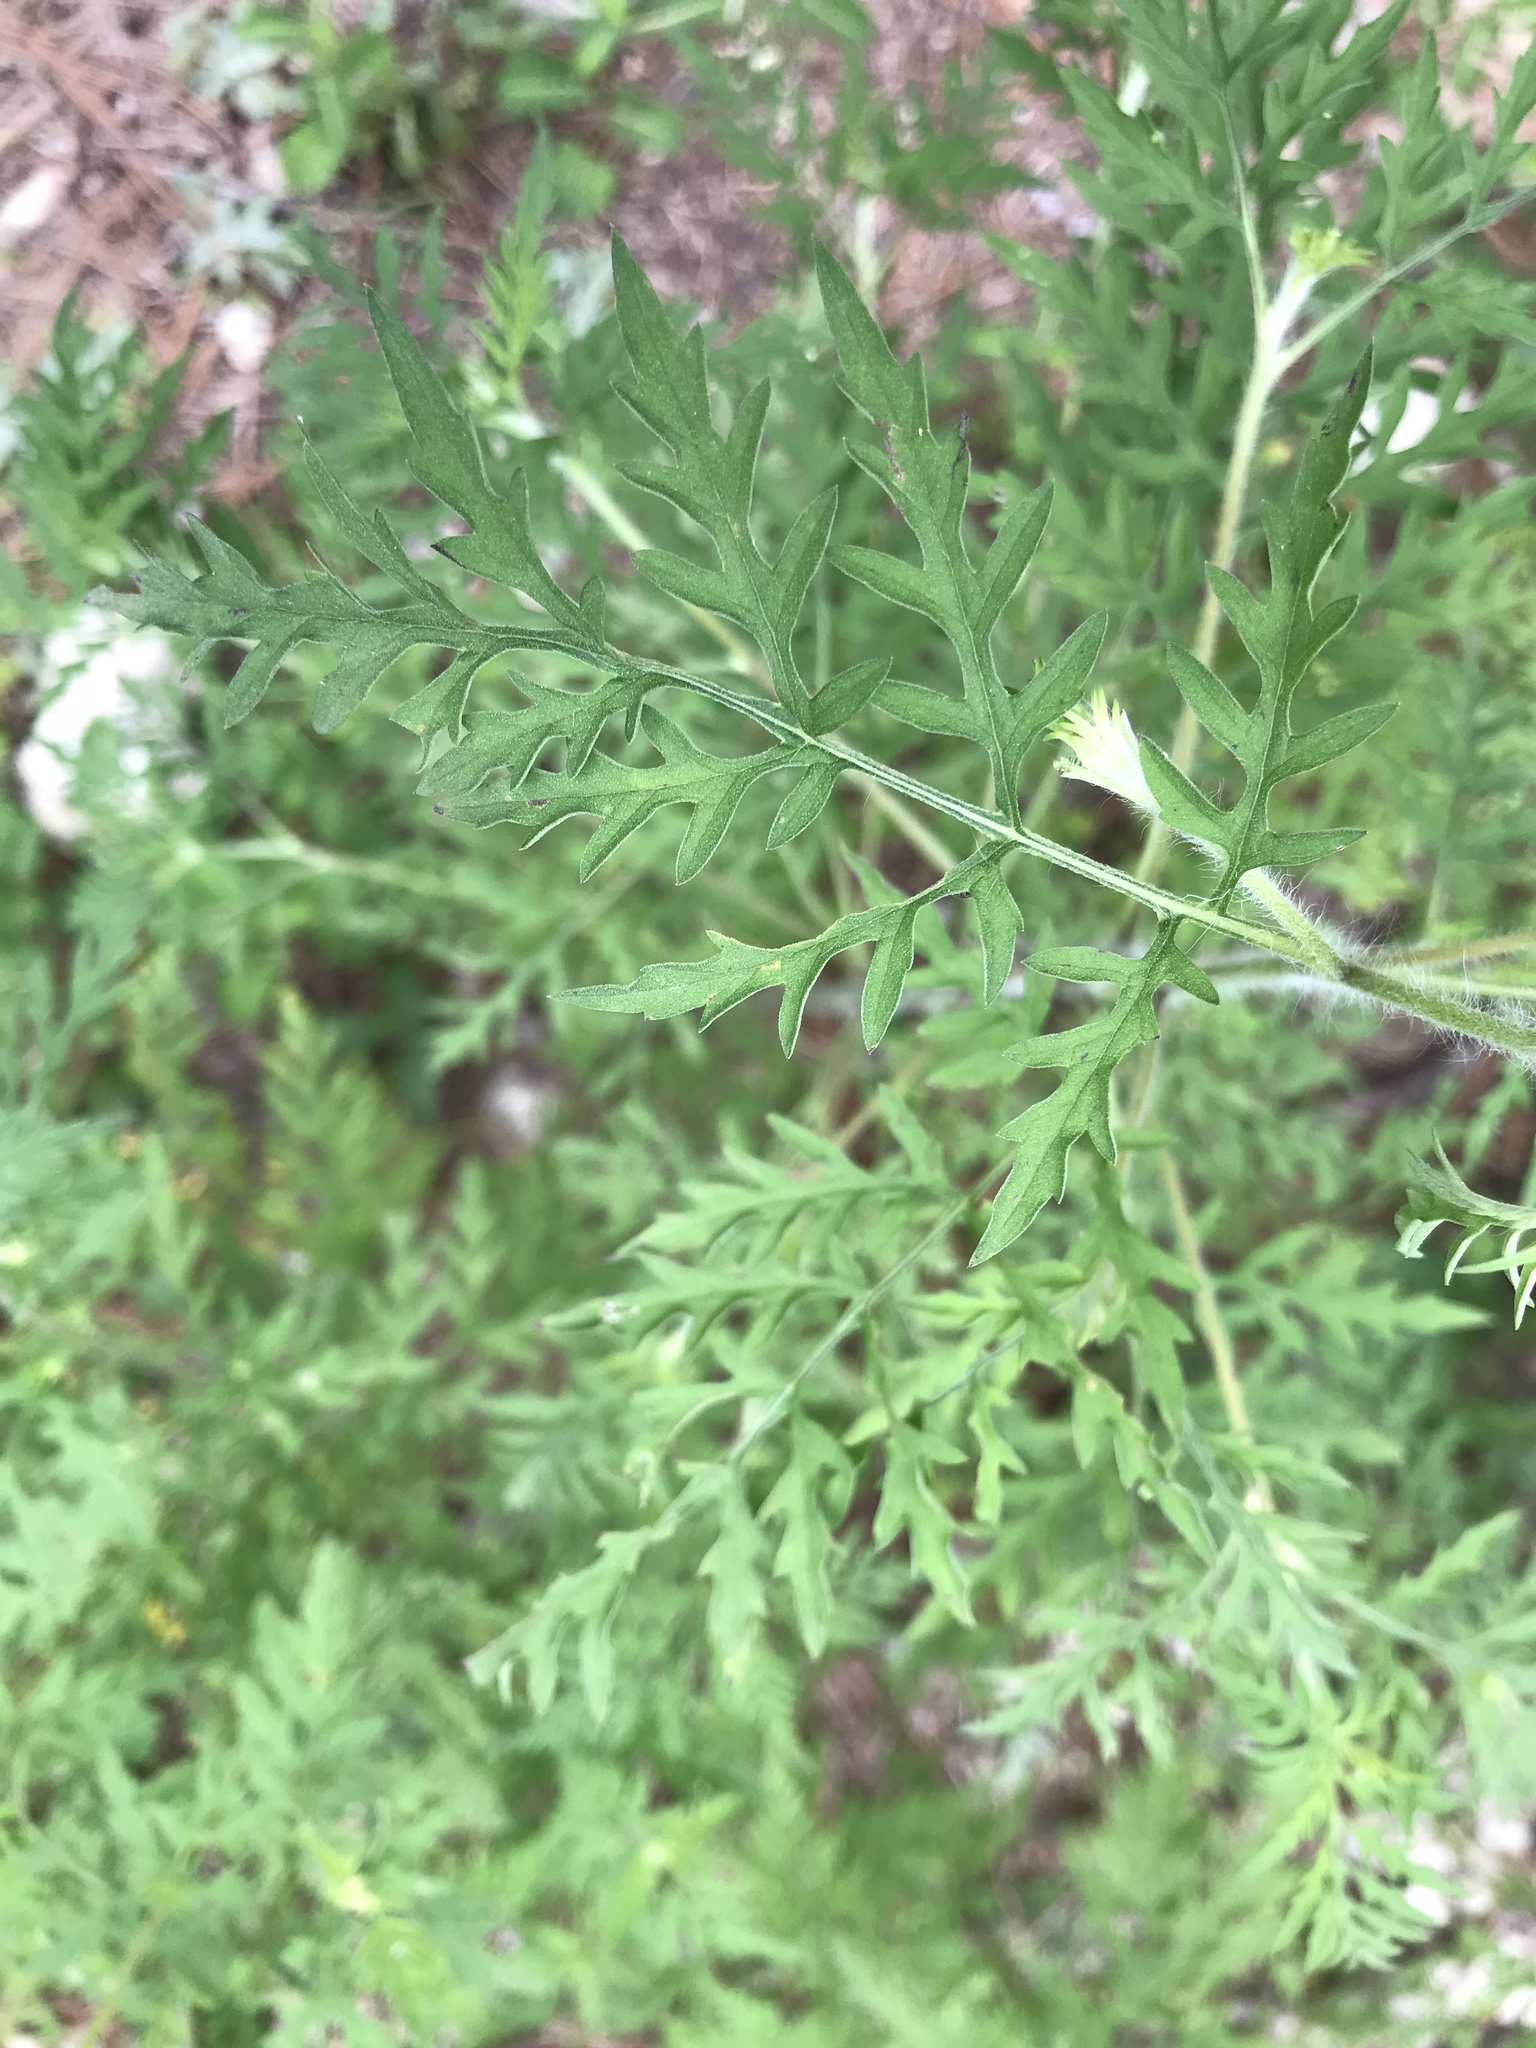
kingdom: Plantae
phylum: Tracheophyta
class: Magnoliopsida
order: Asterales
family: Asteraceae
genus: Ambrosia
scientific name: Ambrosia artemisiifolia
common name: Annual ragweed
